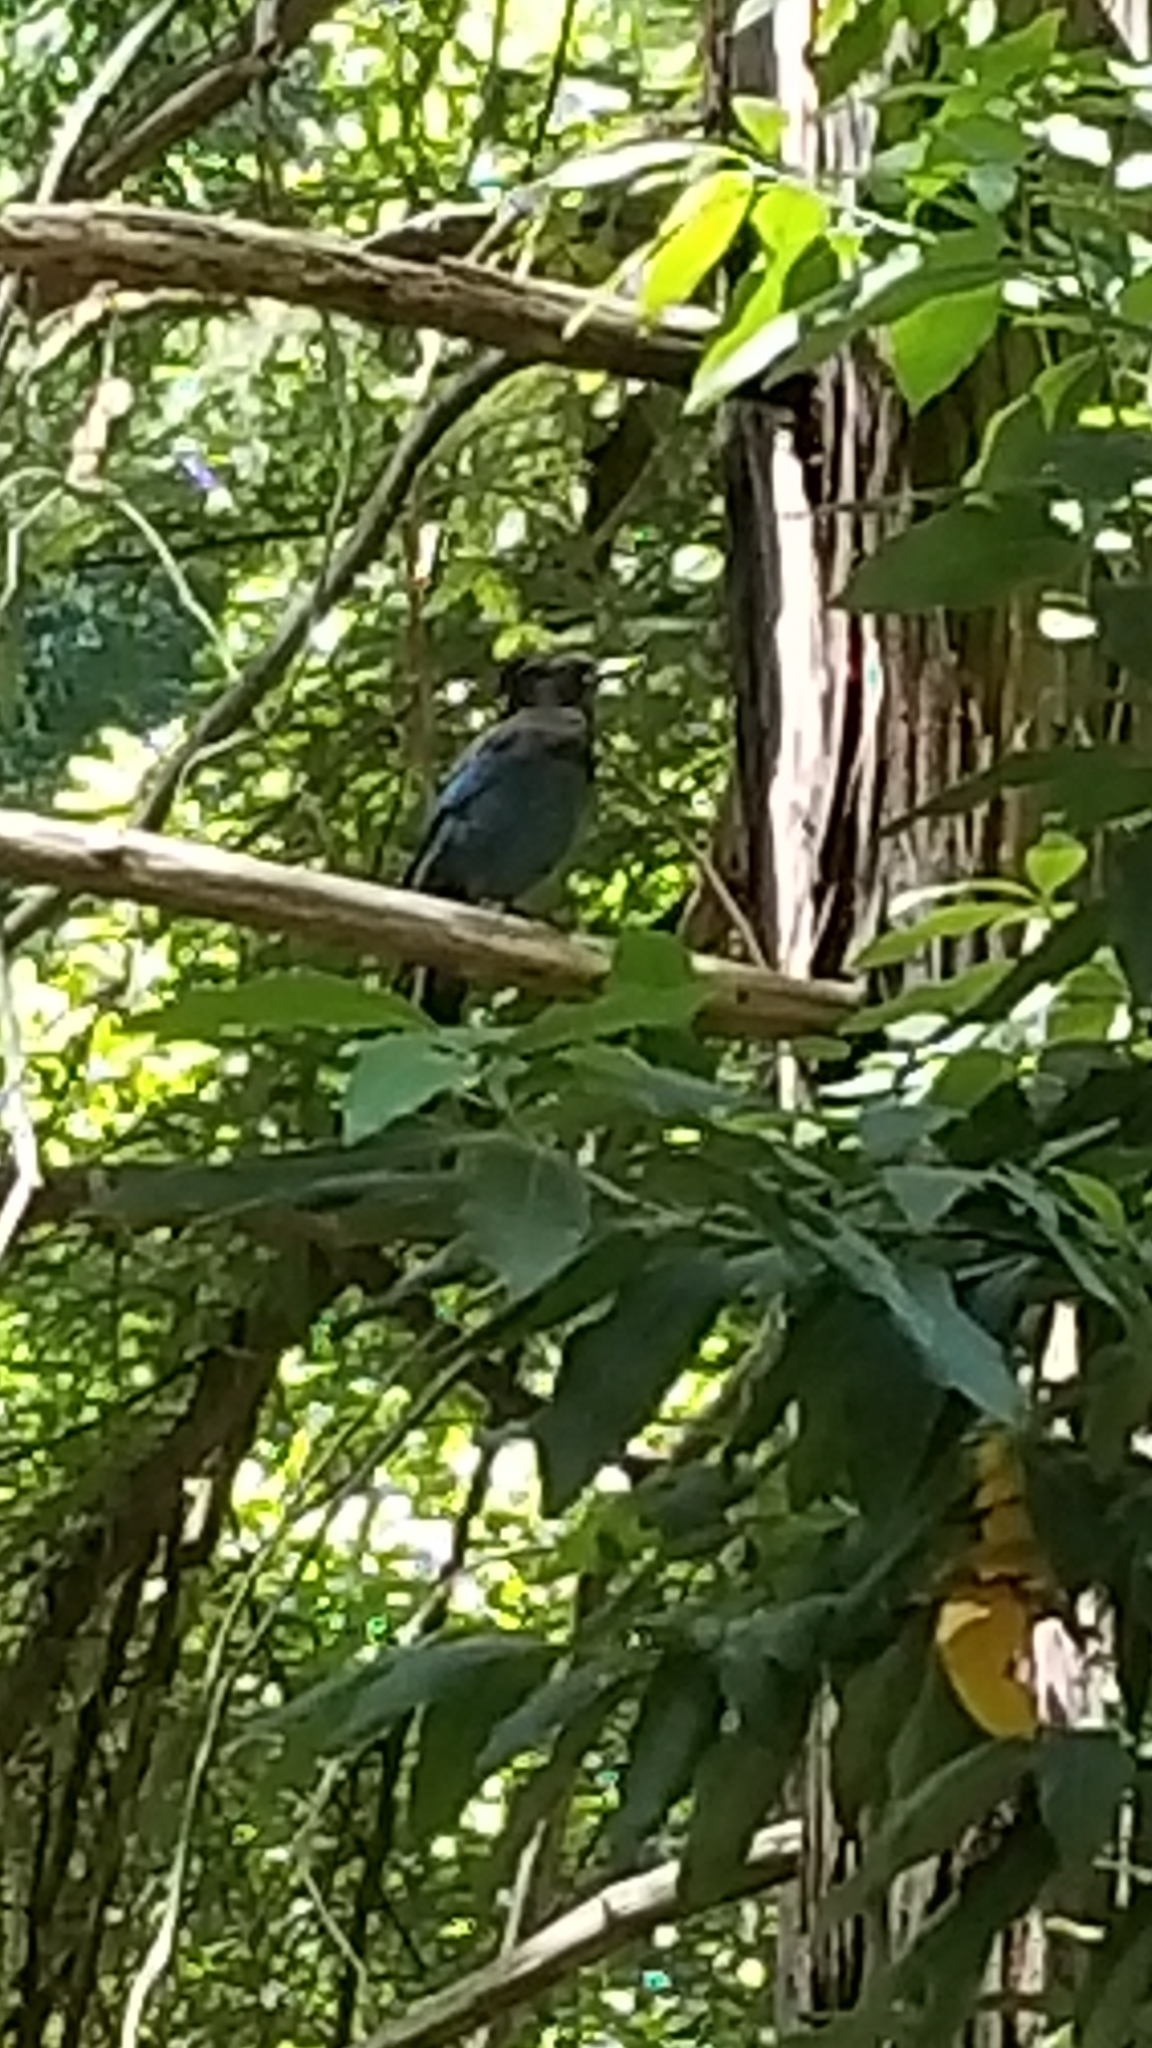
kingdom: Animalia
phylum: Chordata
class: Aves
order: Passeriformes
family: Corvidae
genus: Cyanocitta
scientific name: Cyanocitta stelleri
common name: Steller's jay
